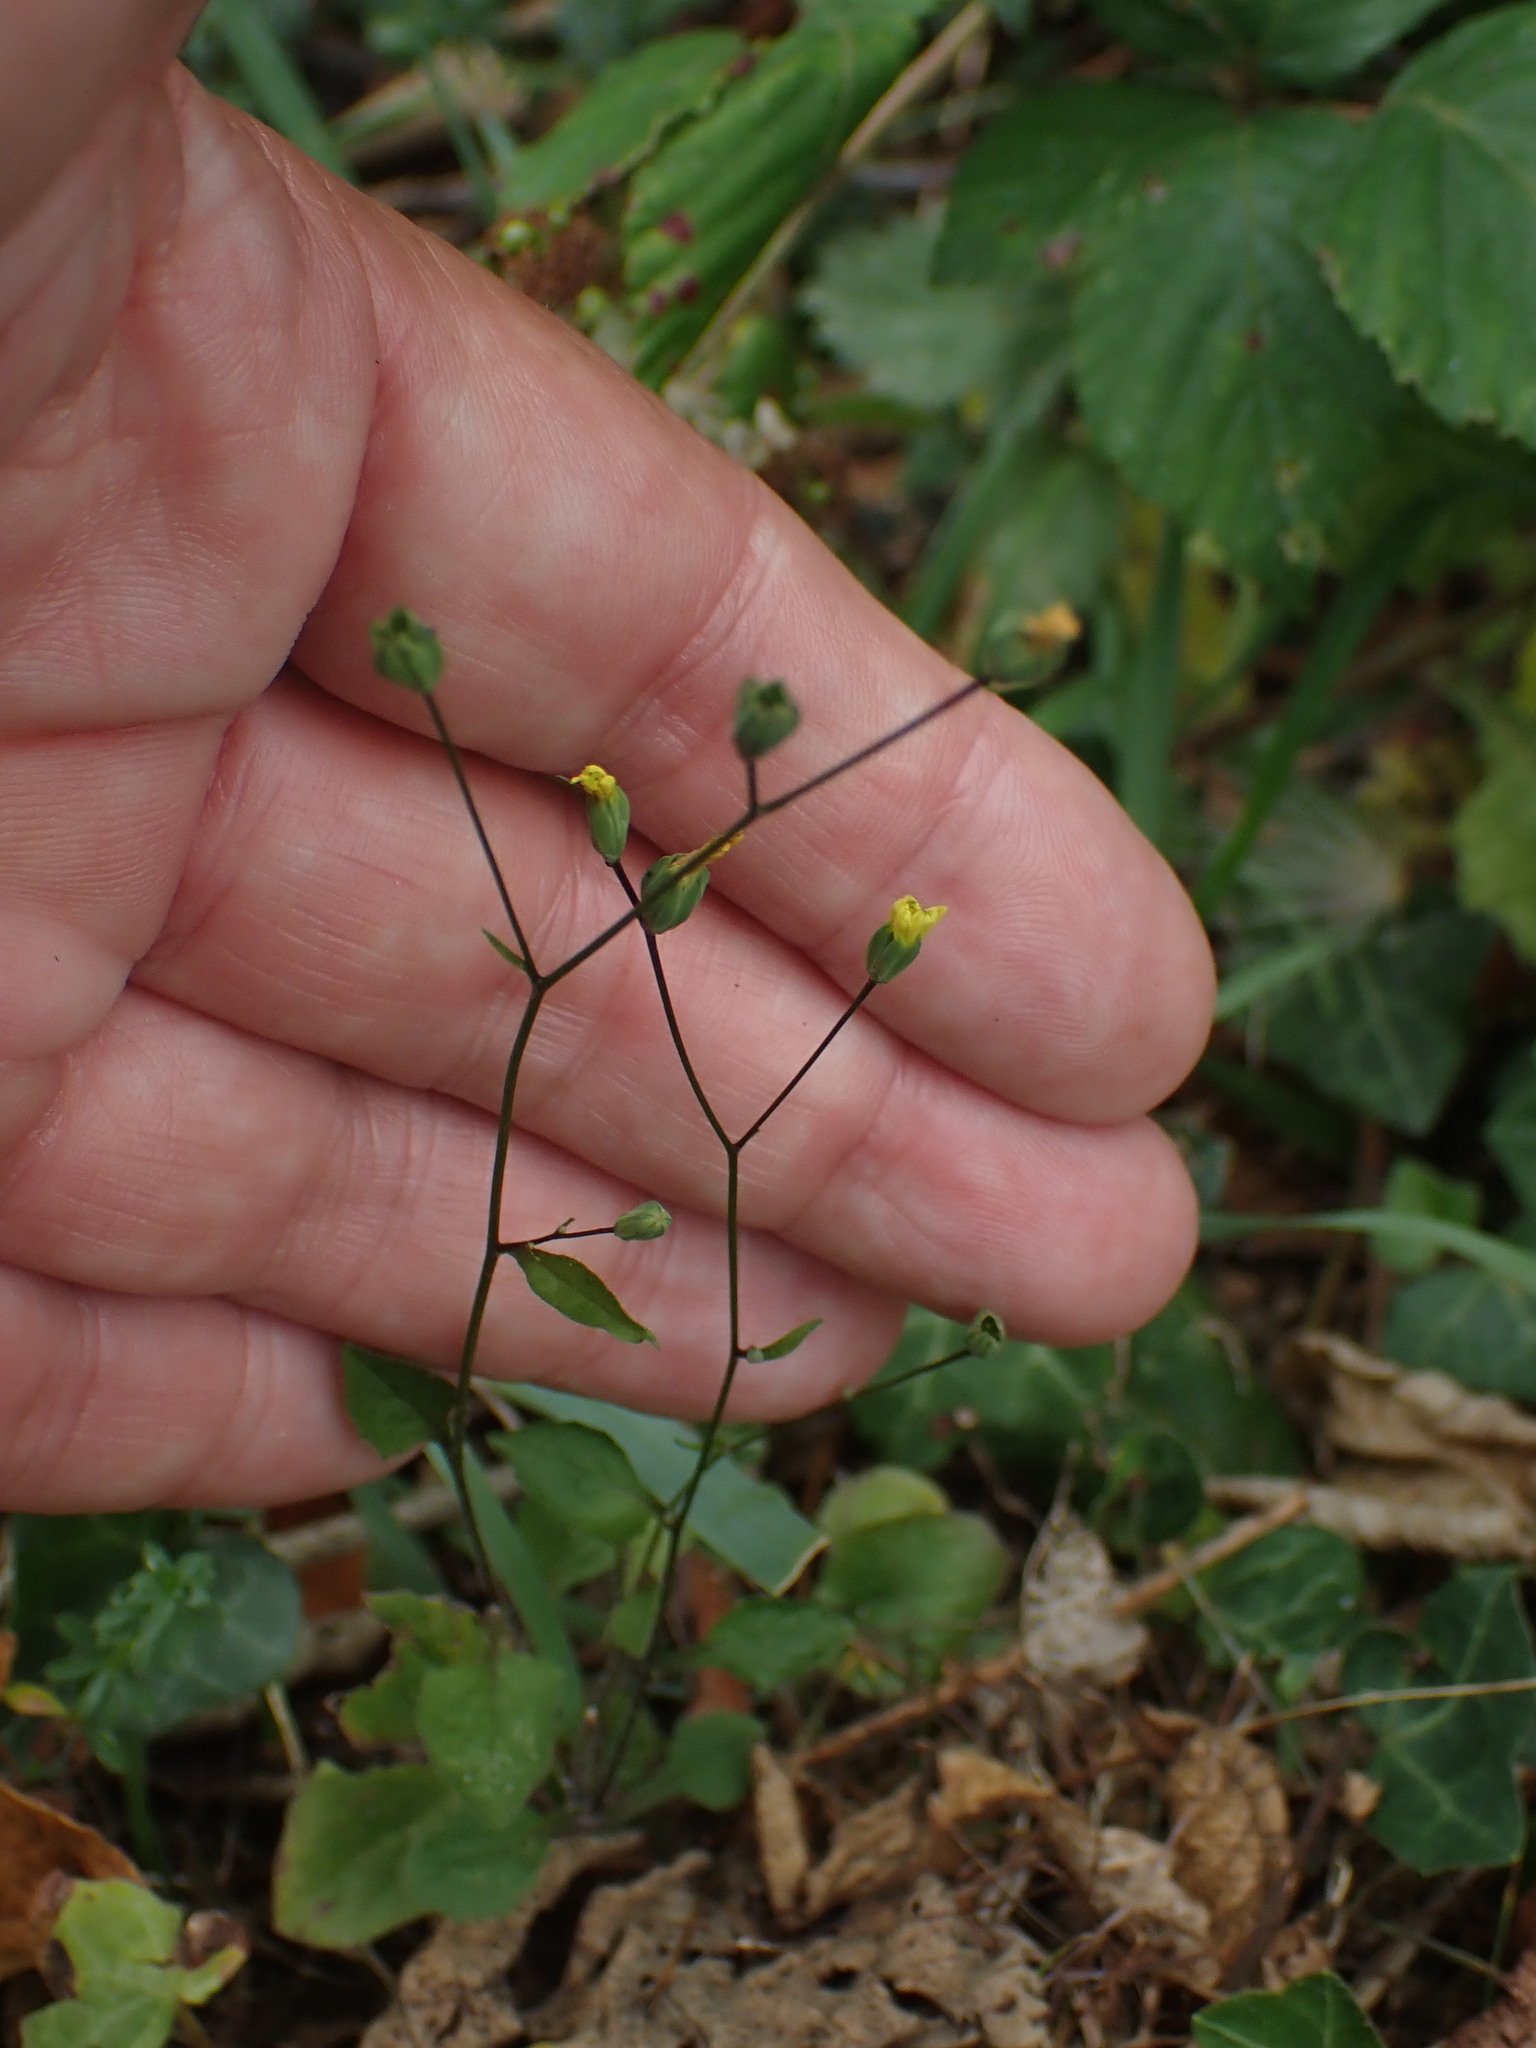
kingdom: Plantae
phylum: Tracheophyta
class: Magnoliopsida
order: Asterales
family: Asteraceae
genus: Lapsana
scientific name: Lapsana communis
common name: Nipplewort
